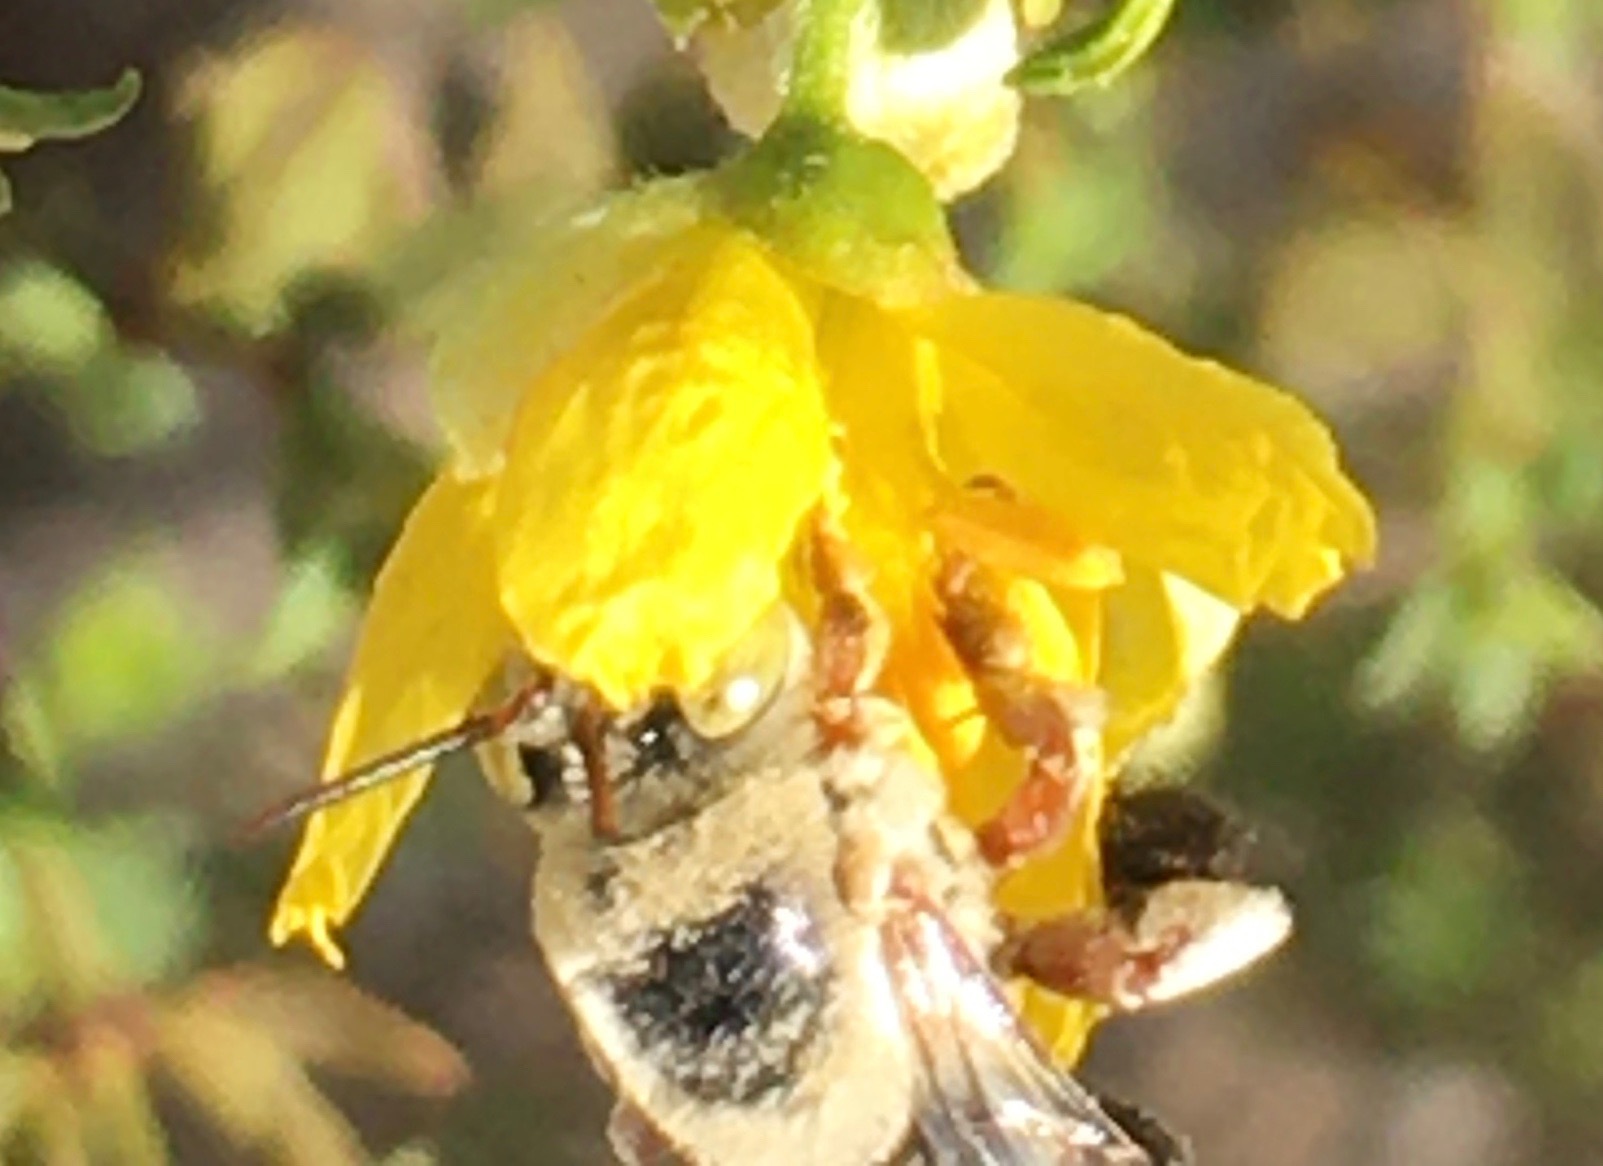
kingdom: Animalia
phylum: Arthropoda
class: Insecta
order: Hymenoptera
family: Apidae
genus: Centris
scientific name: Centris rhodopus
